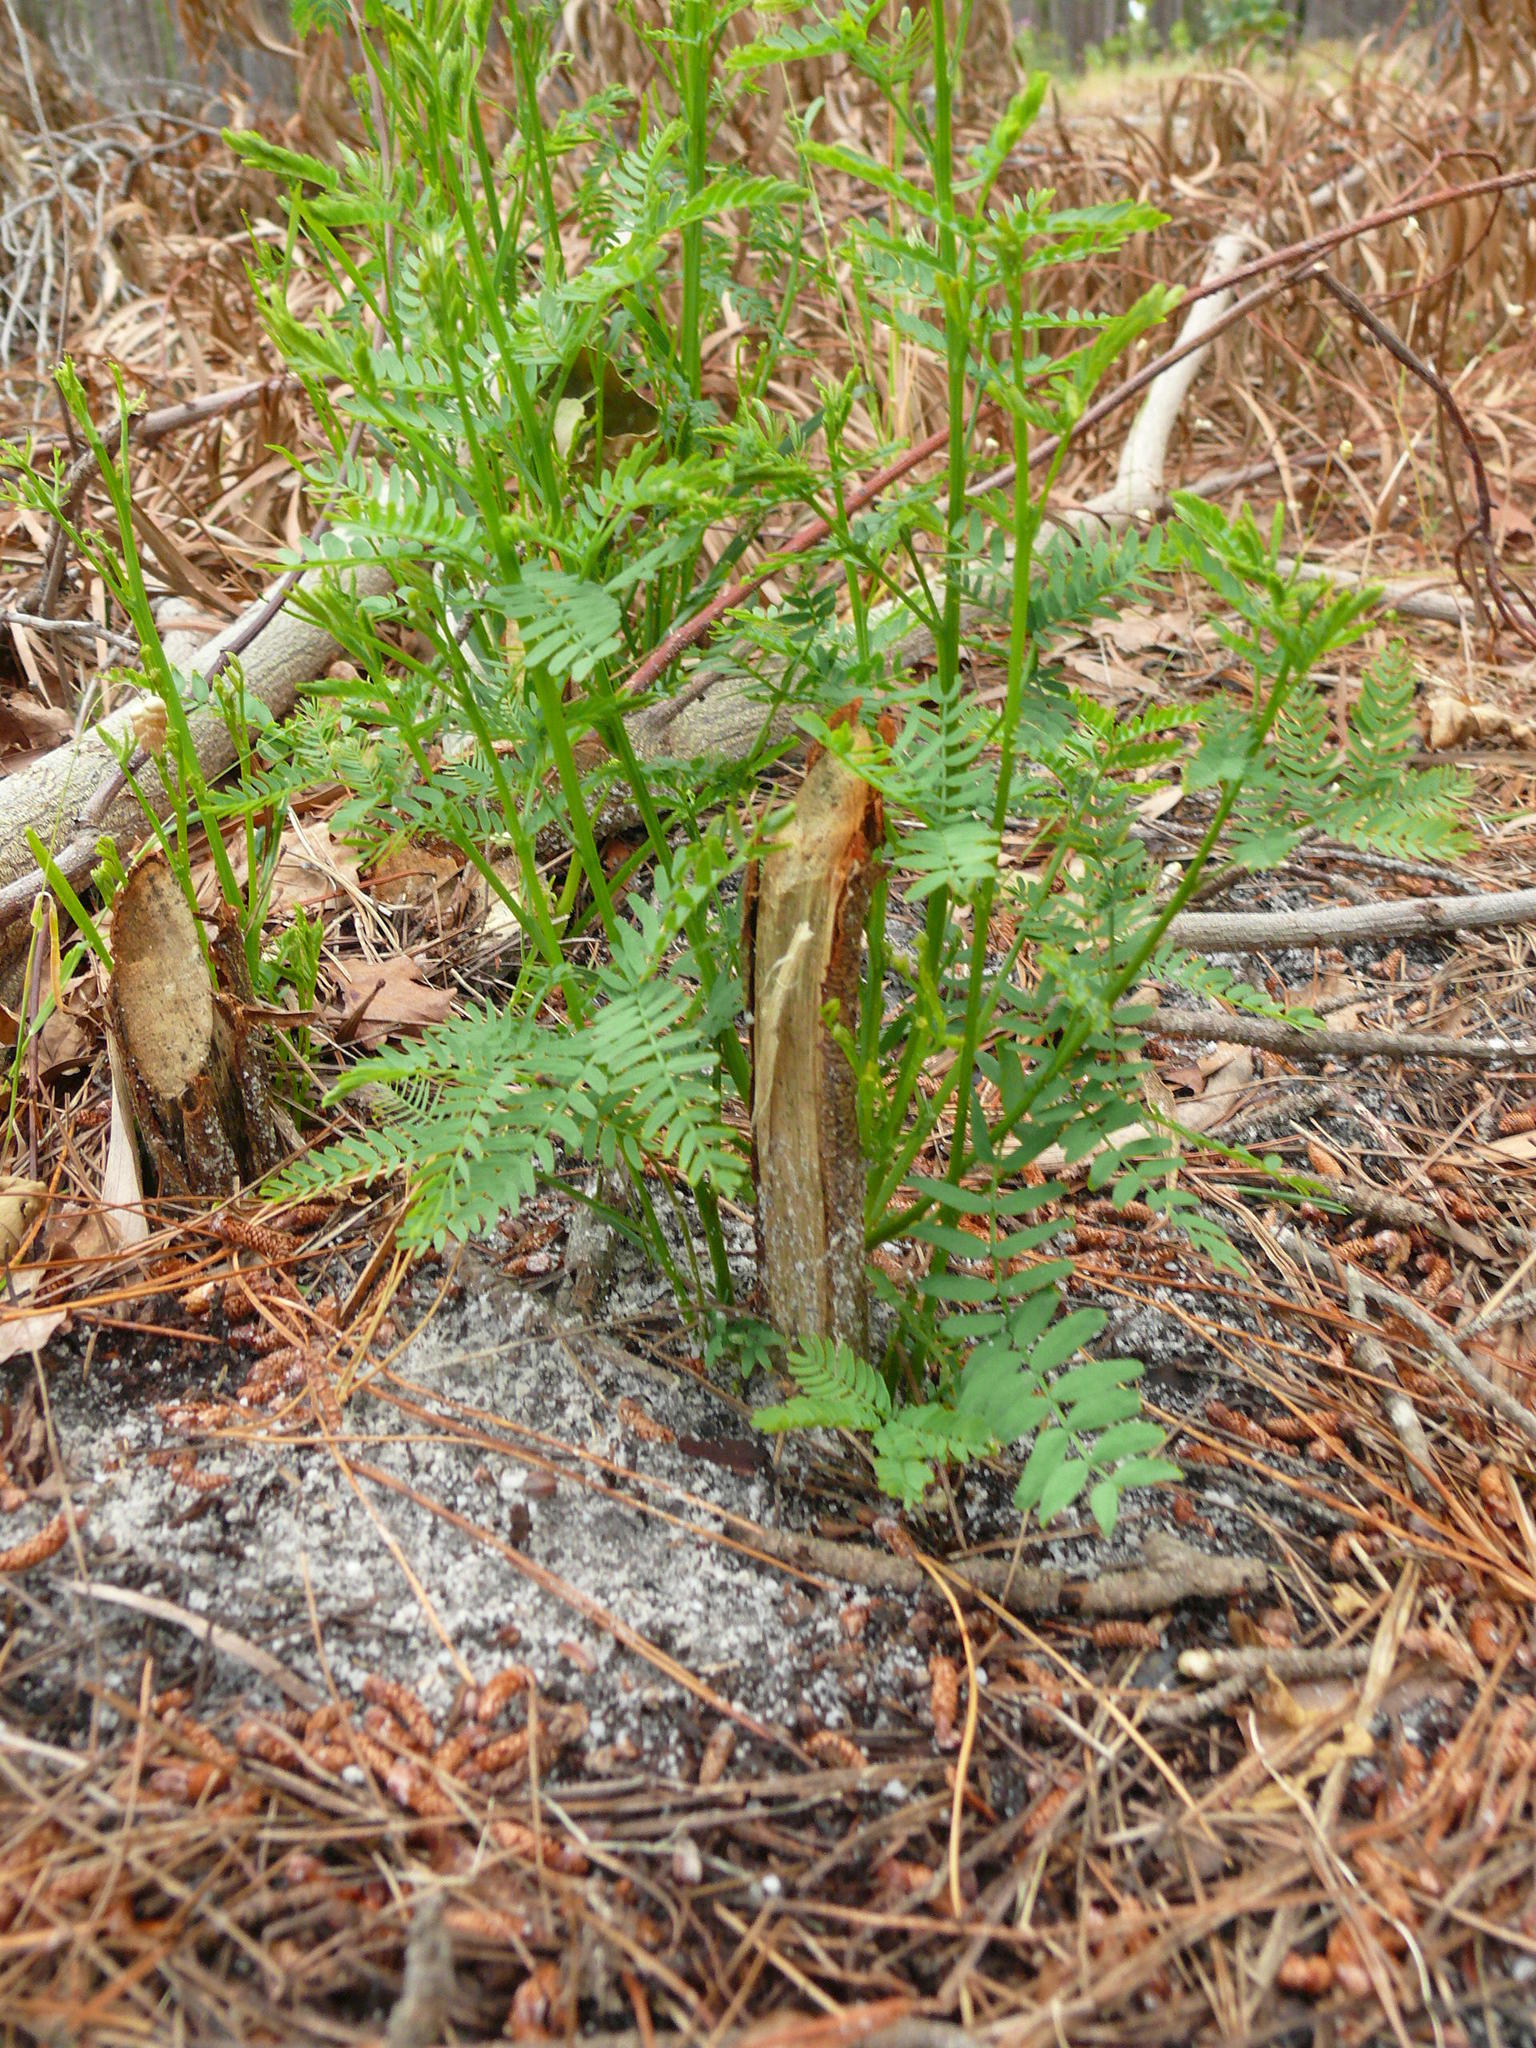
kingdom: Plantae
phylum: Tracheophyta
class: Magnoliopsida
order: Fabales
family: Fabaceae
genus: Acacia
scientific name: Acacia implexa
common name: Black wattle
